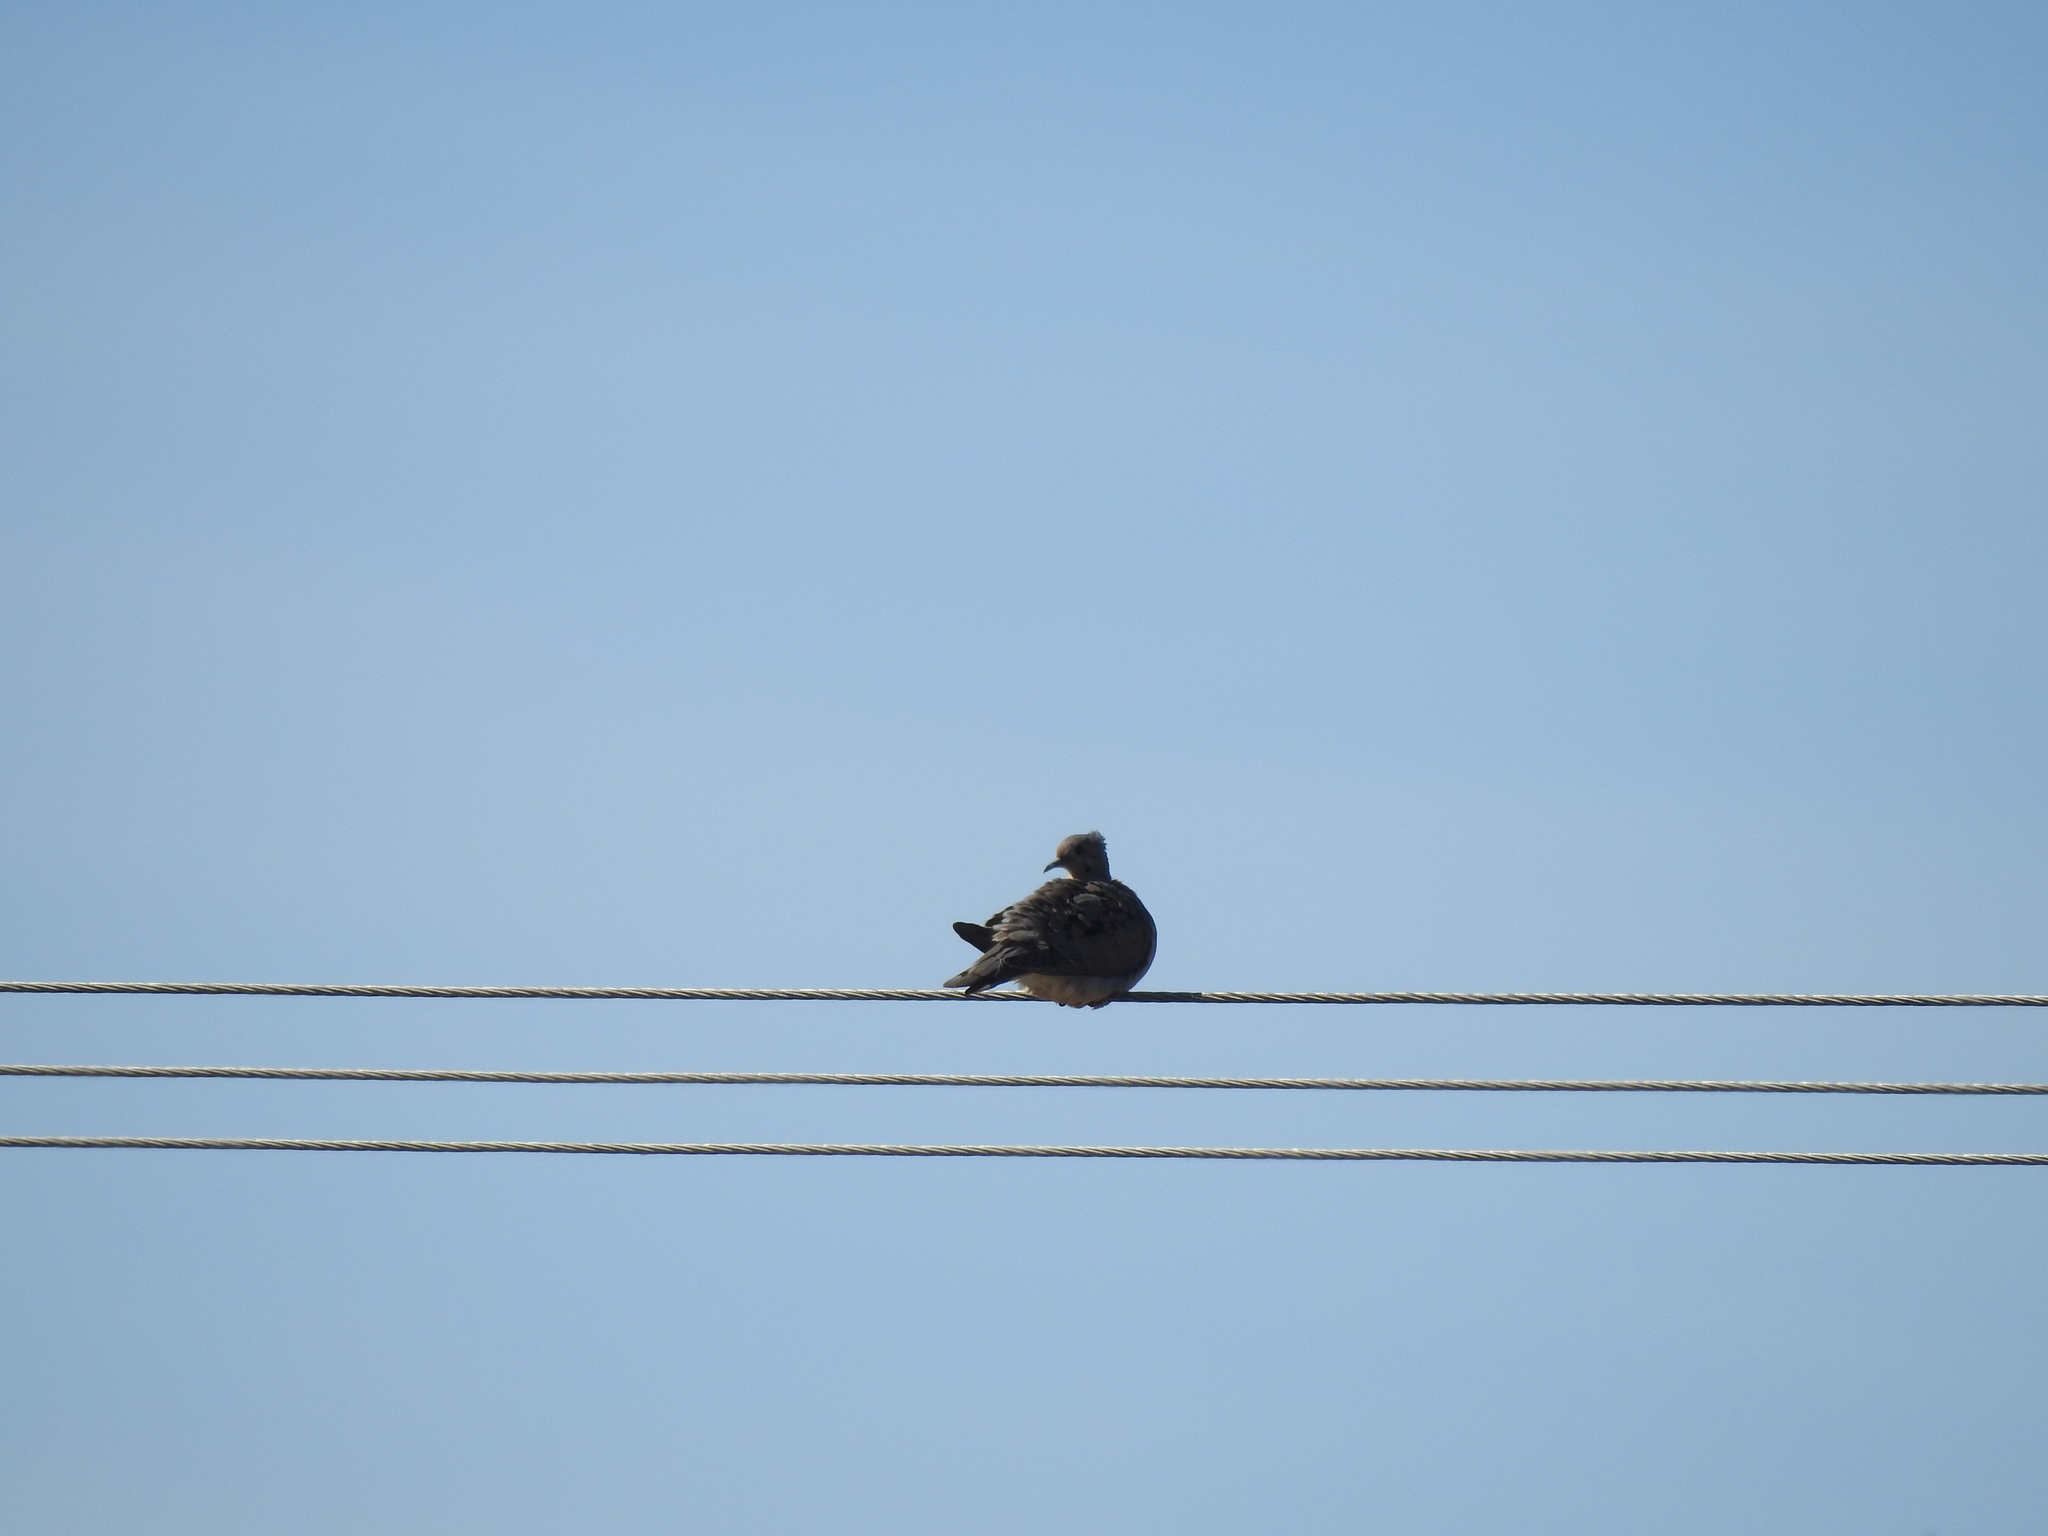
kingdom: Animalia
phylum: Chordata
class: Aves
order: Columbiformes
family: Columbidae
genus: Zenaida
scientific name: Zenaida auriculata
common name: Eared dove
